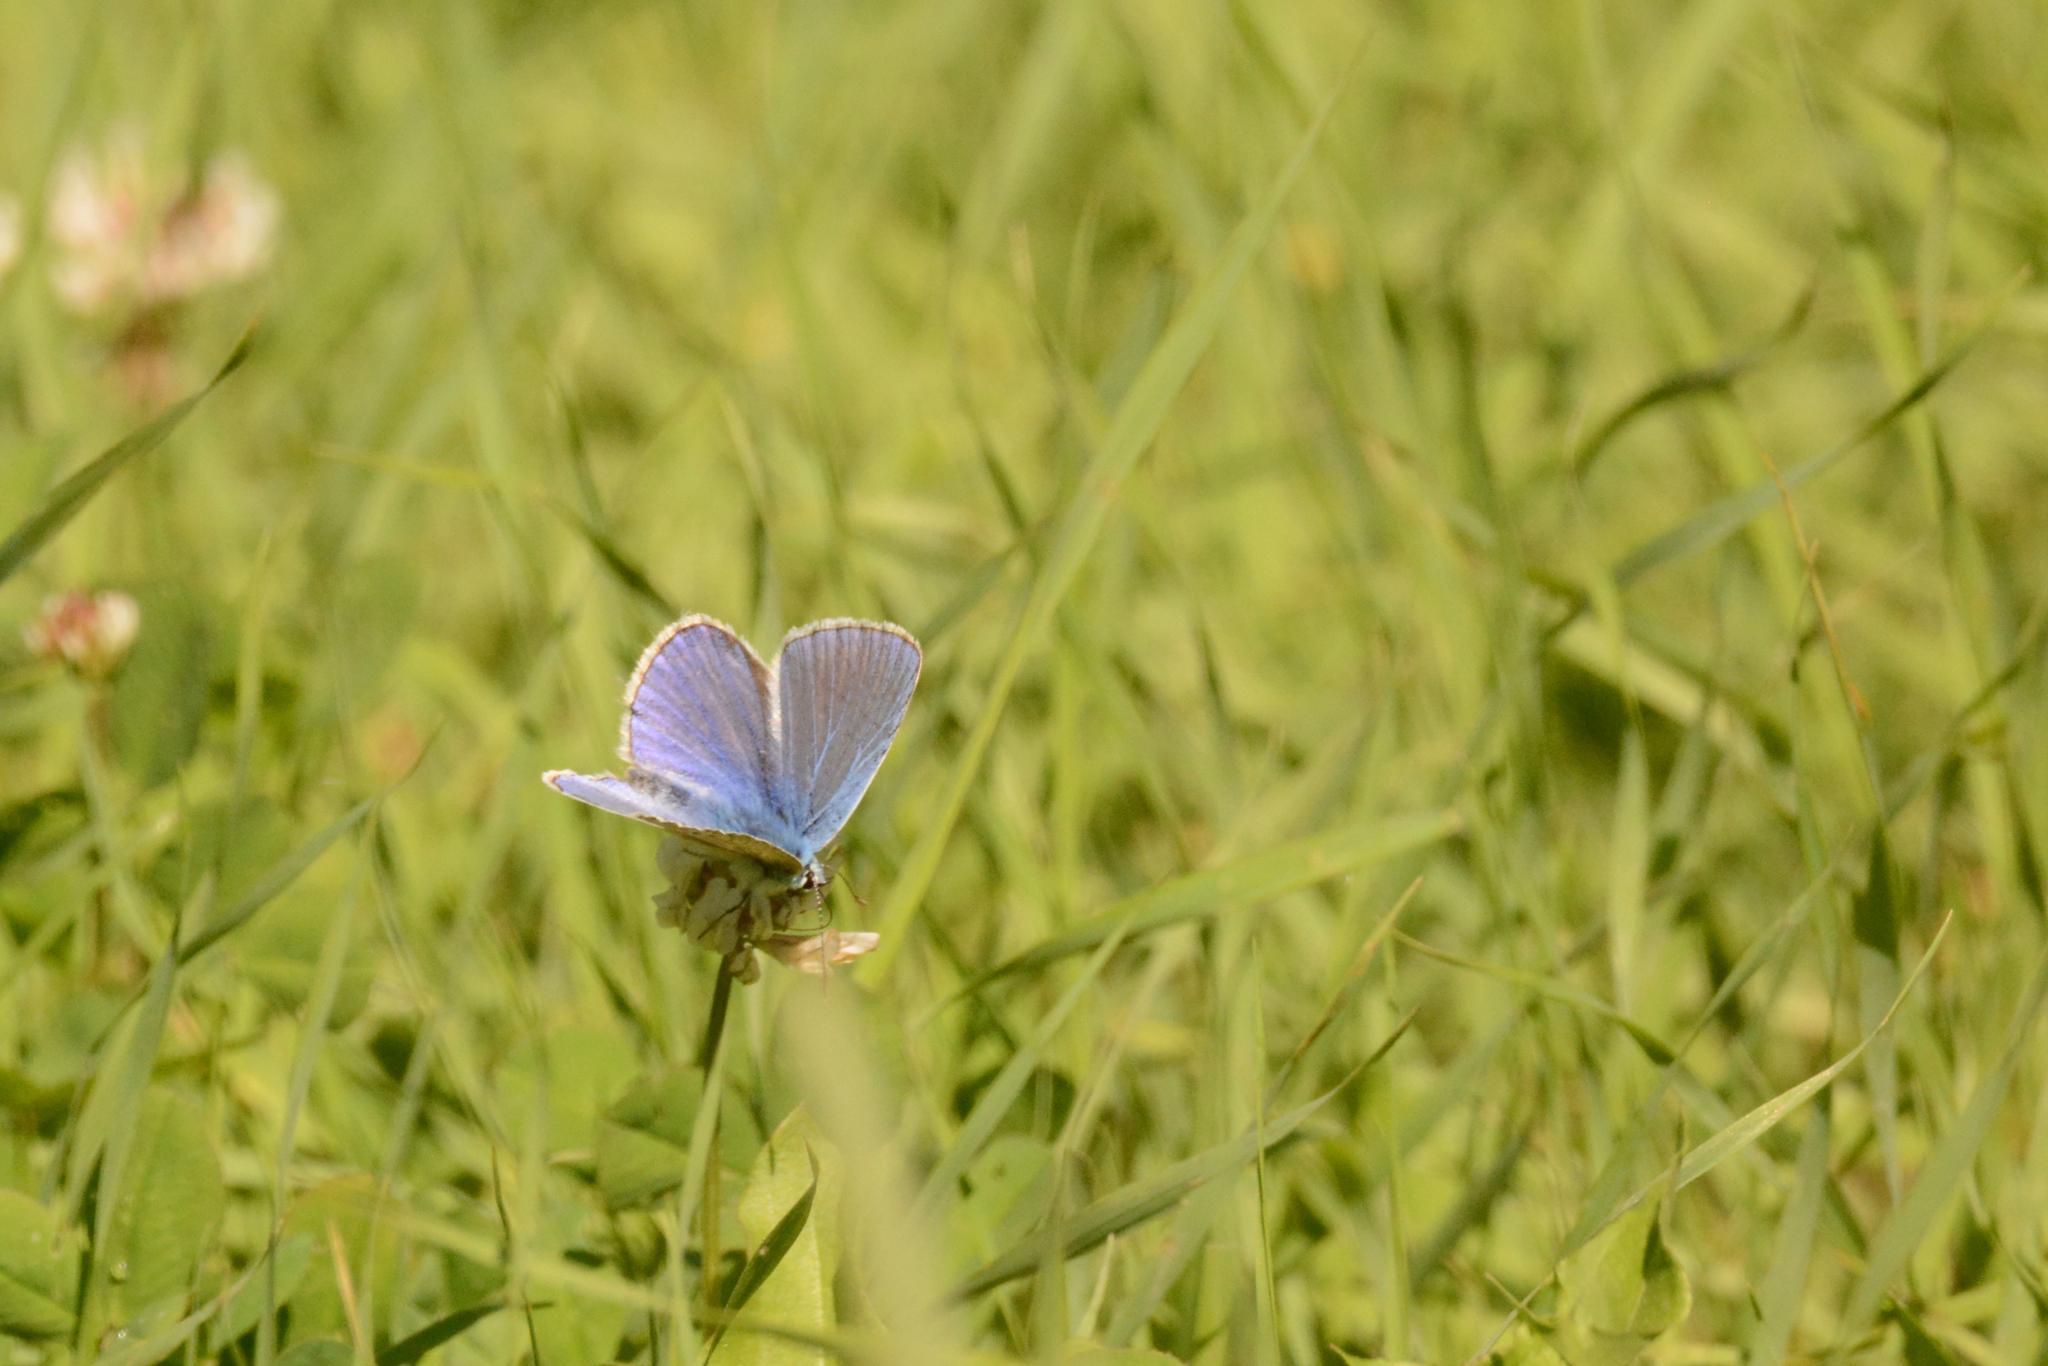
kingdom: Animalia
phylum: Arthropoda
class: Insecta
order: Lepidoptera
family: Lycaenidae
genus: Polyommatus
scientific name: Polyommatus icarus
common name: Common blue
